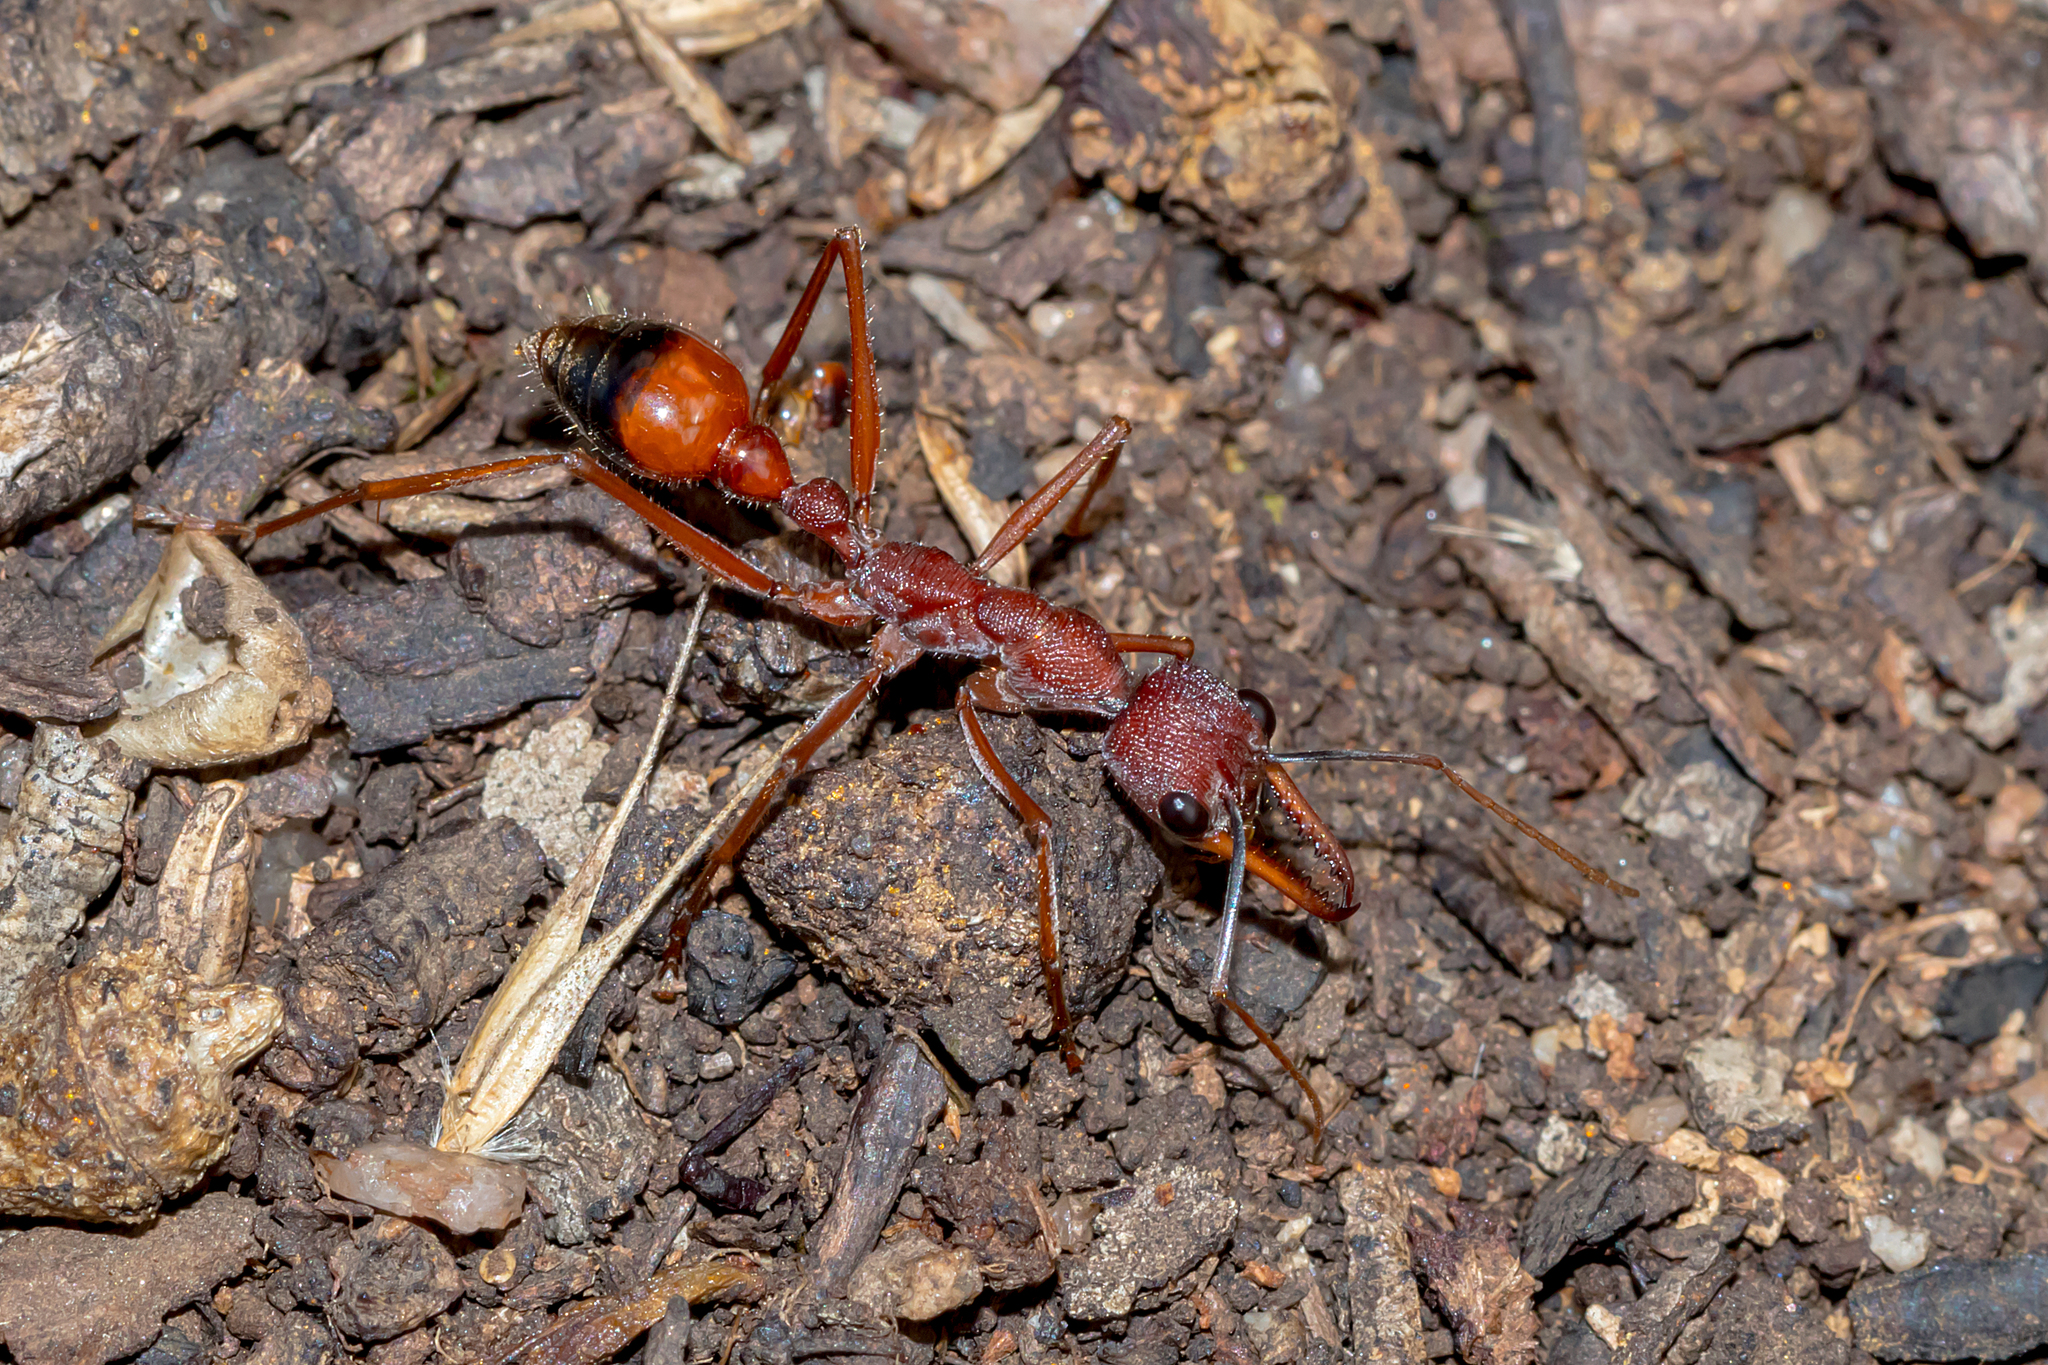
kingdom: Animalia
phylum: Arthropoda
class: Insecta
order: Hymenoptera
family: Formicidae
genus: Myrmecia
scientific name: Myrmecia nigriscapa
